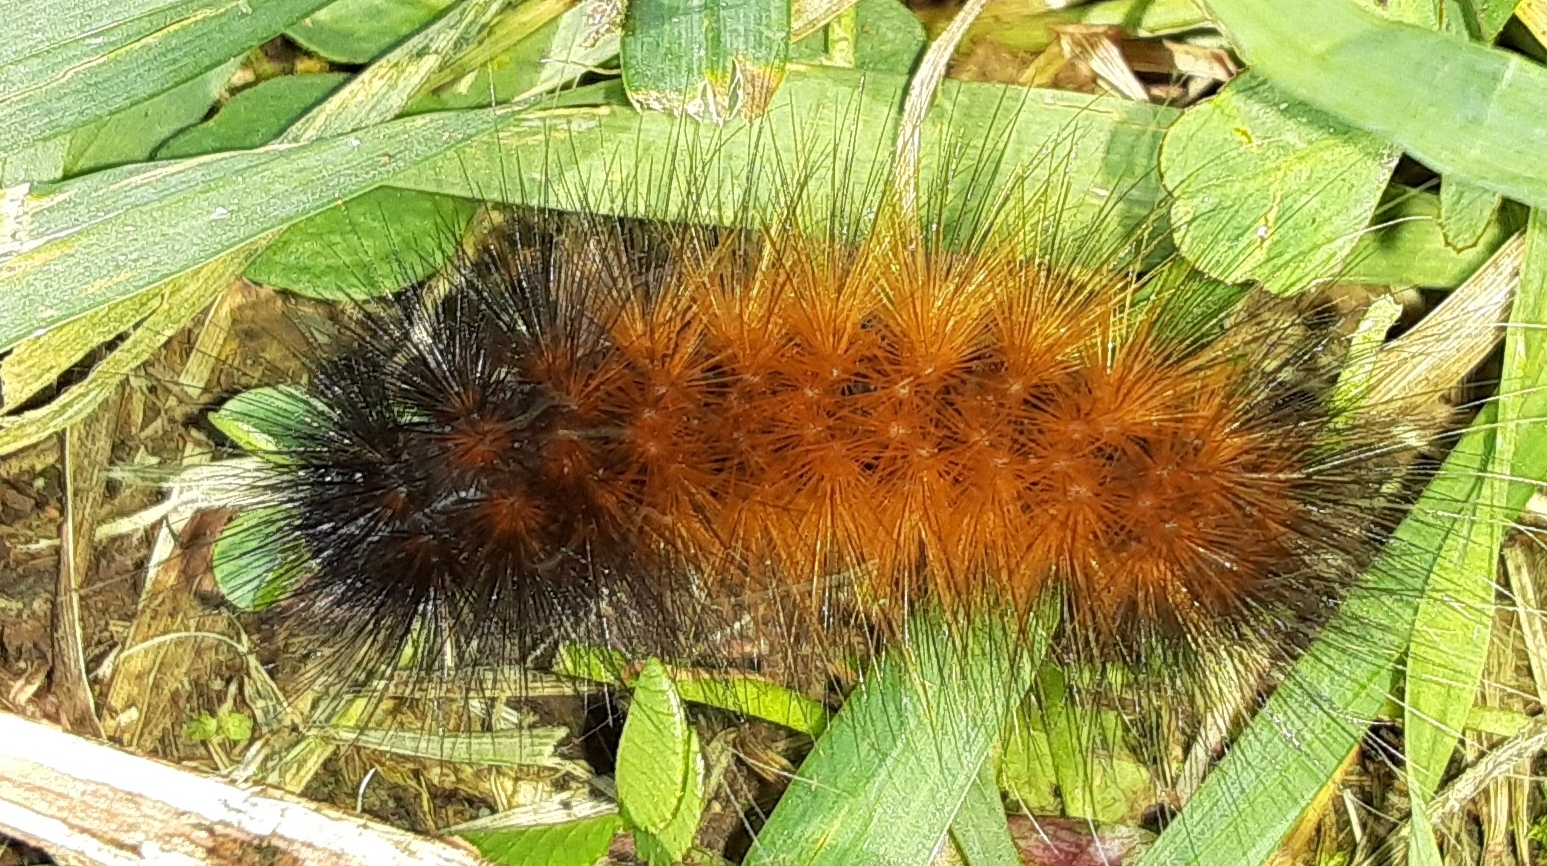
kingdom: Animalia
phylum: Arthropoda
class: Insecta
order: Lepidoptera
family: Erebidae
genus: Pyrrharctia
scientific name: Pyrrharctia isabella
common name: Isabella tiger moth
